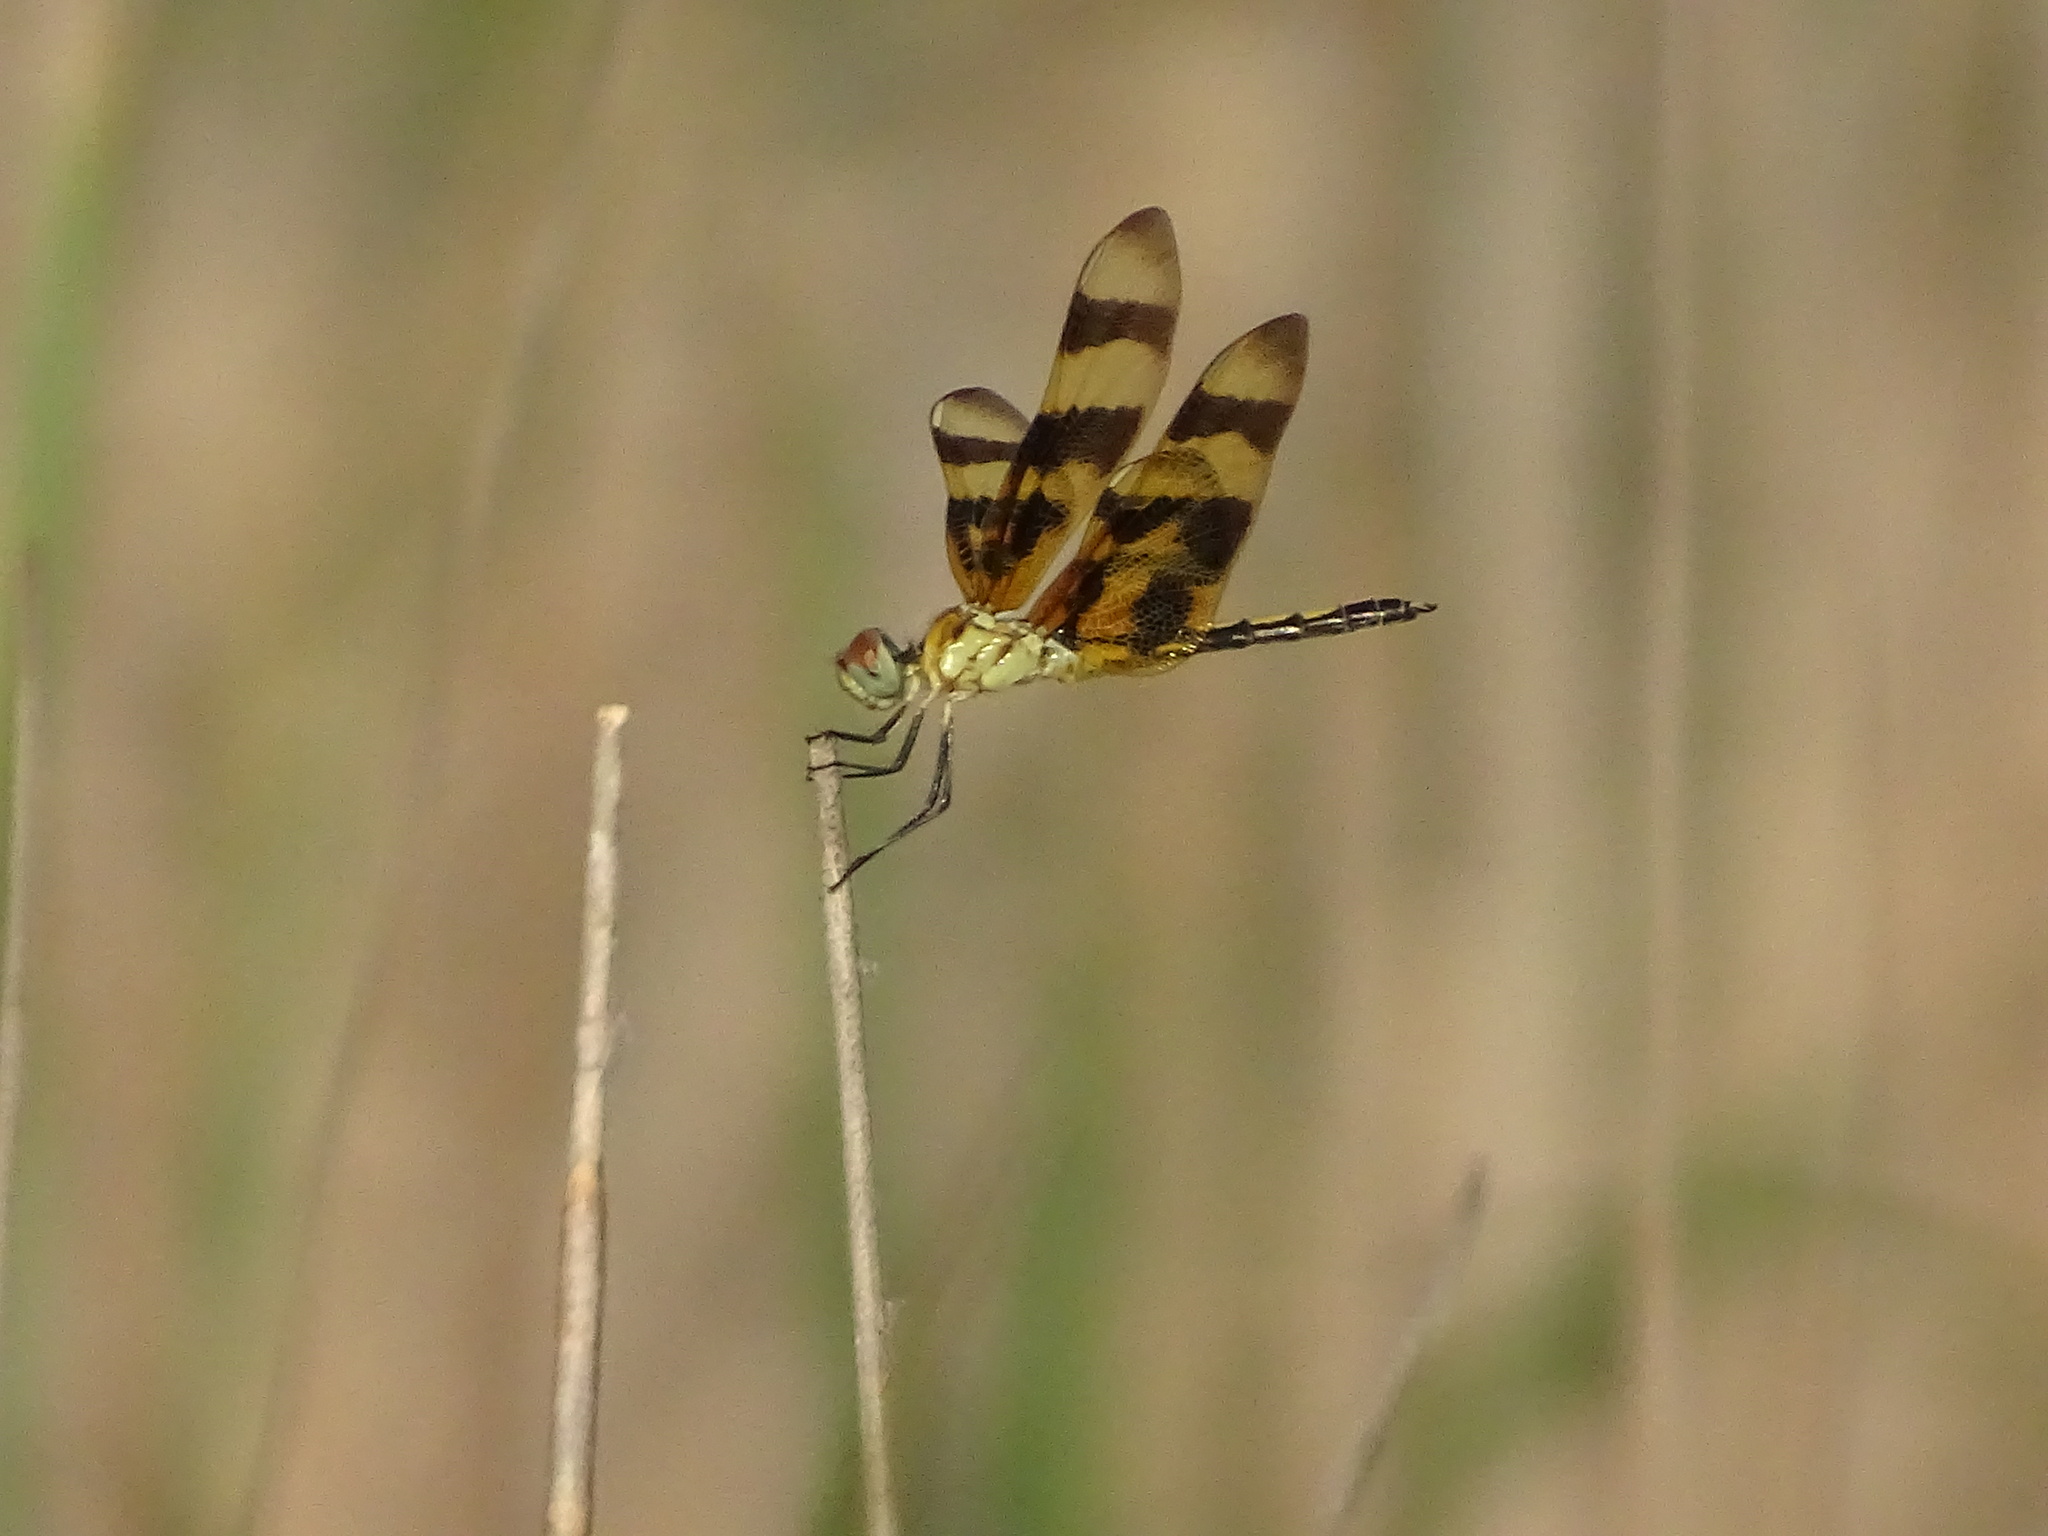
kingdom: Animalia
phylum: Arthropoda
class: Insecta
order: Odonata
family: Libellulidae
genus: Celithemis
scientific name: Celithemis eponina
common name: Halloween pennant
